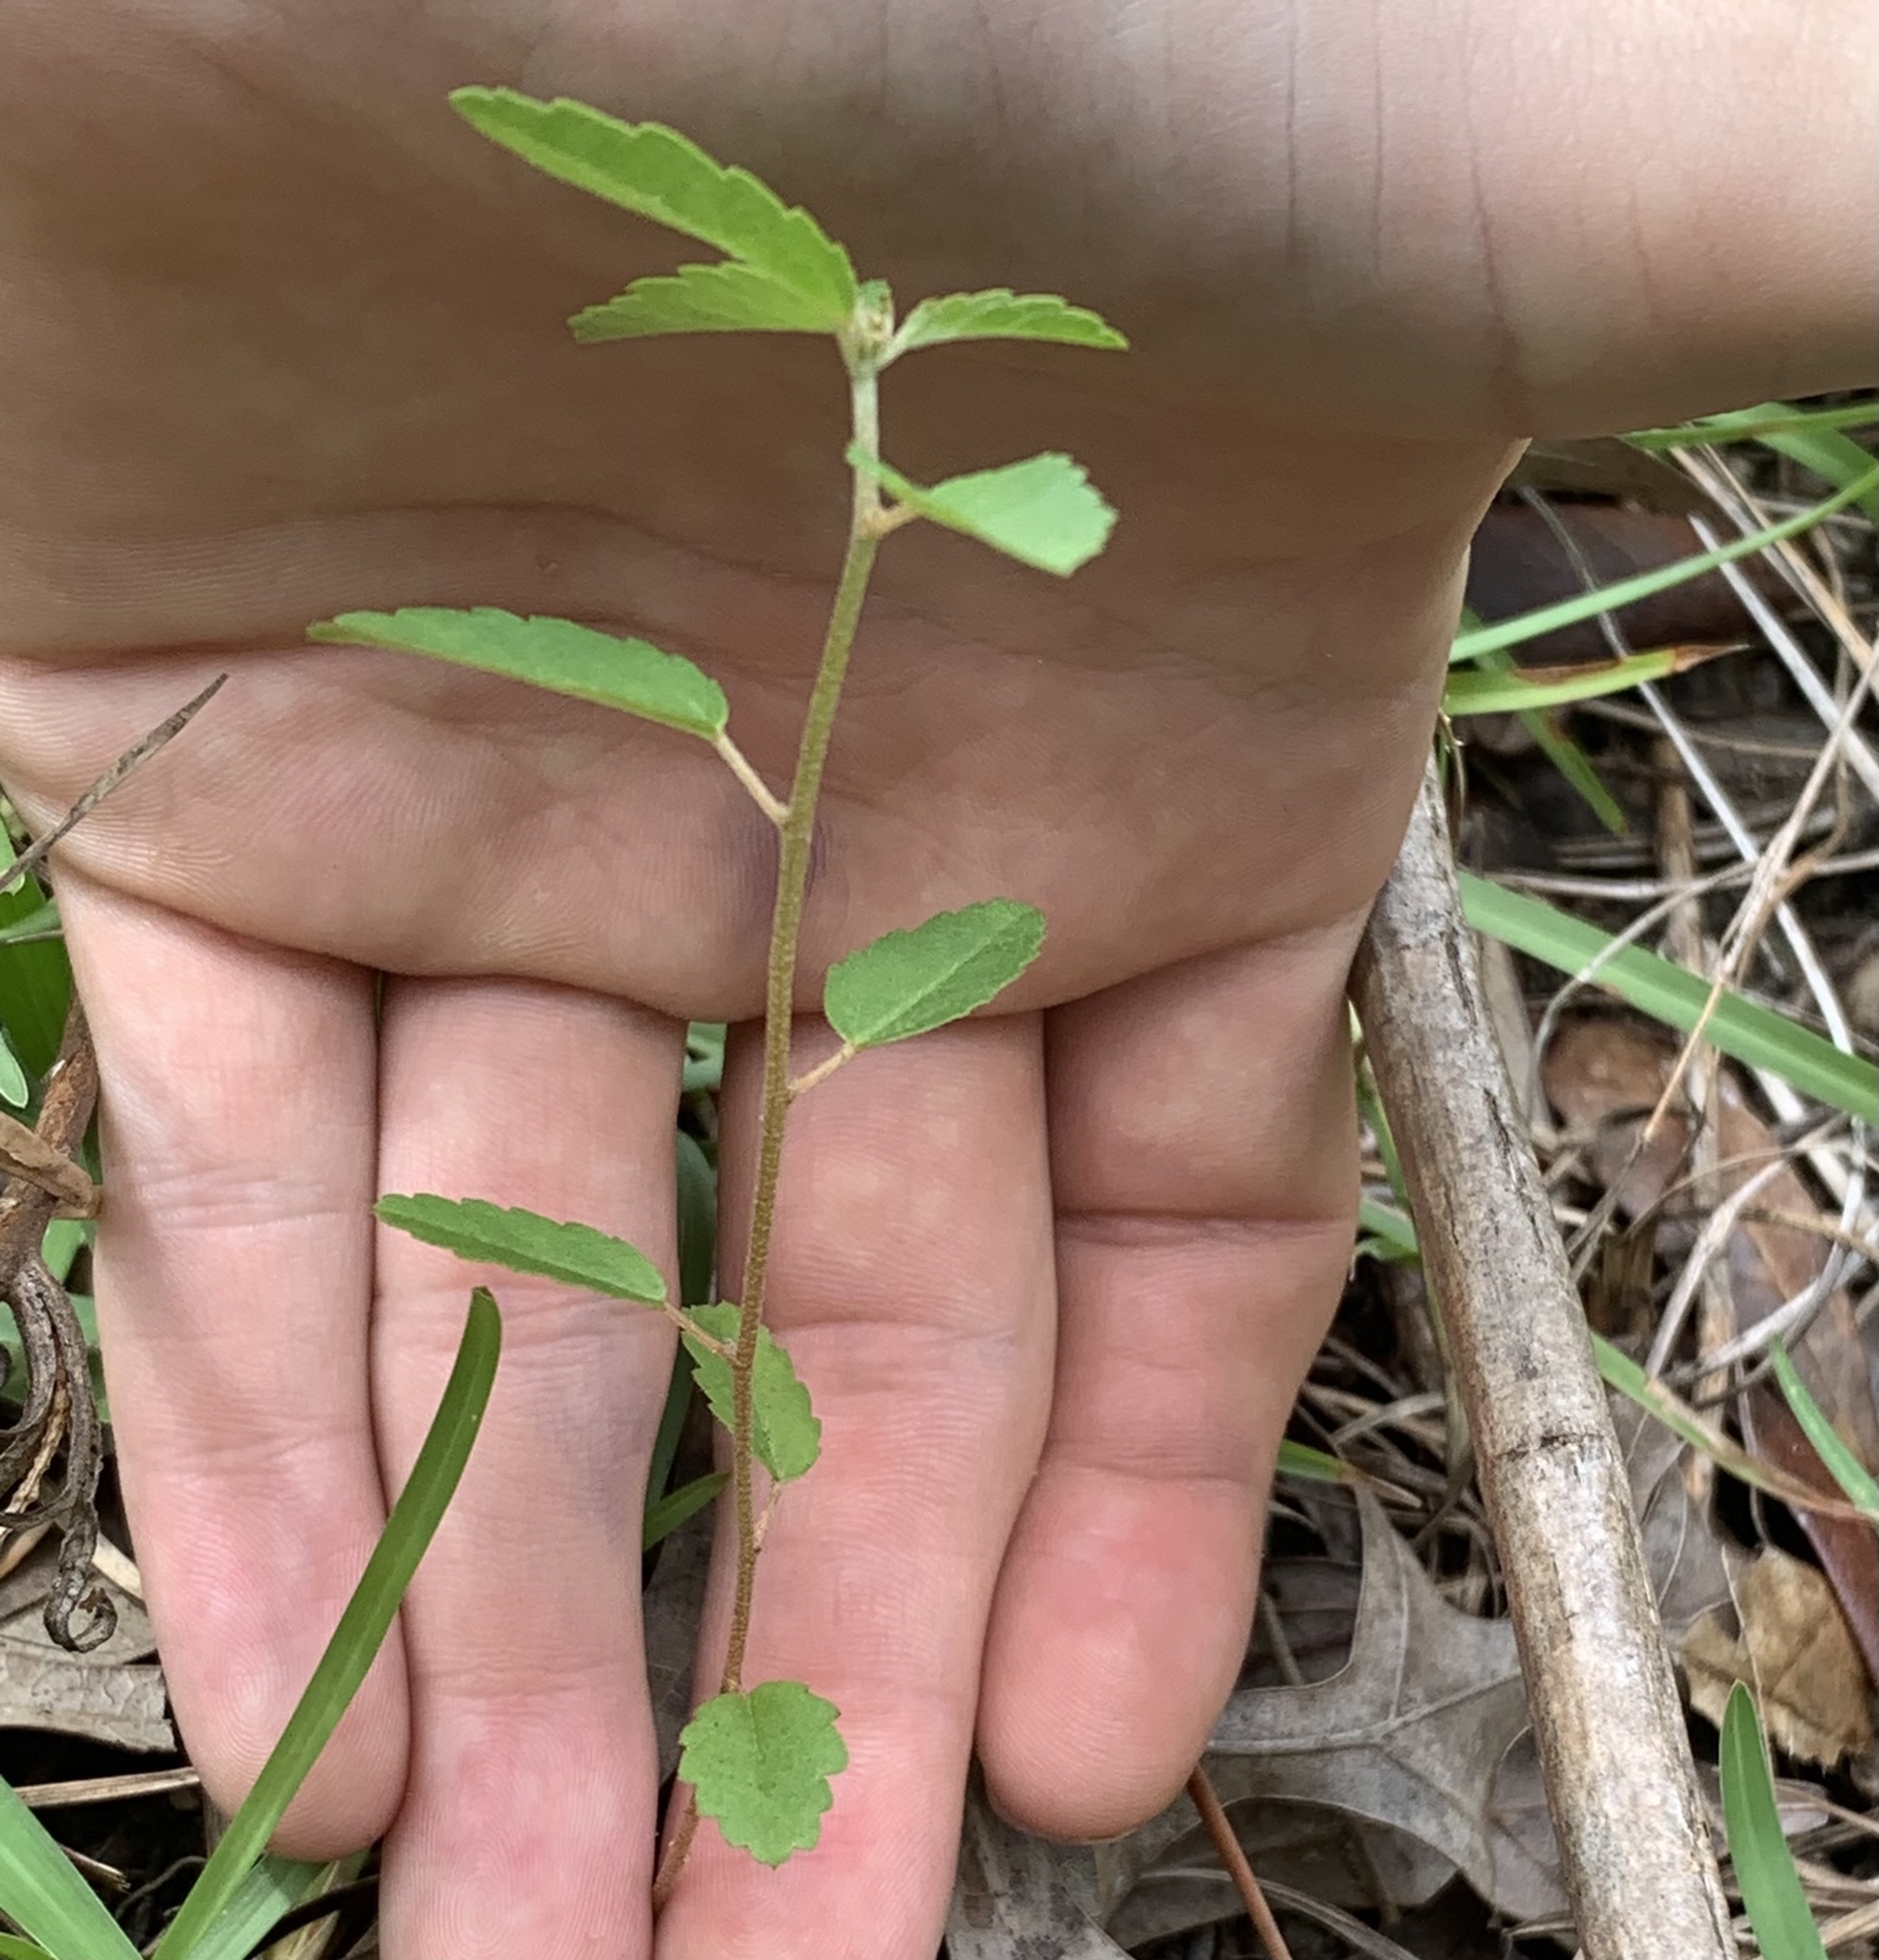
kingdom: Plantae
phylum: Tracheophyta
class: Magnoliopsida
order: Malpighiales
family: Euphorbiaceae
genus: Croton
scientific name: Croton glandulosus
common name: Tropic croton
